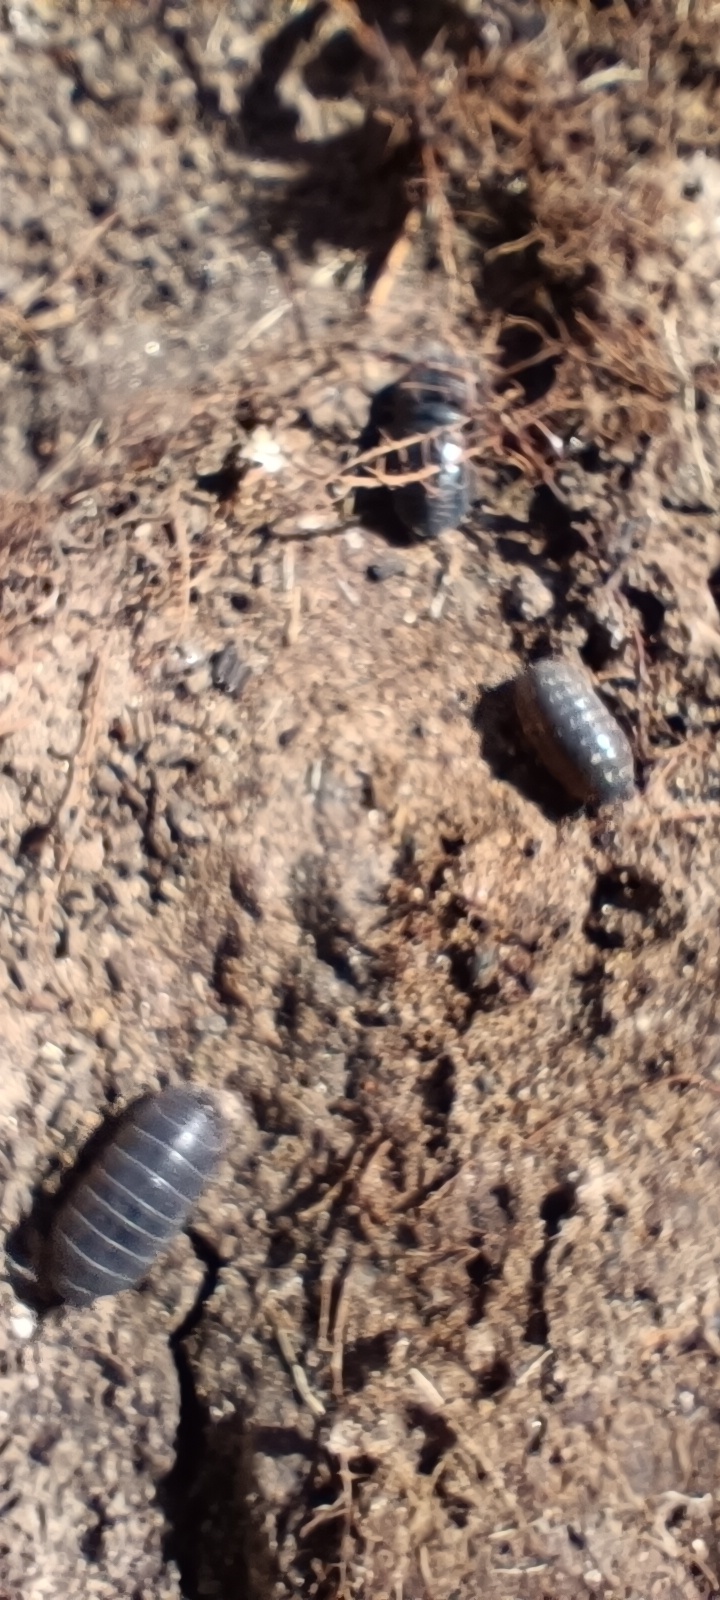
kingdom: Animalia
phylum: Arthropoda
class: Malacostraca
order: Isopoda
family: Armadillidiidae
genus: Armadillidium
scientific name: Armadillidium vulgare
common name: Common pill woodlouse
